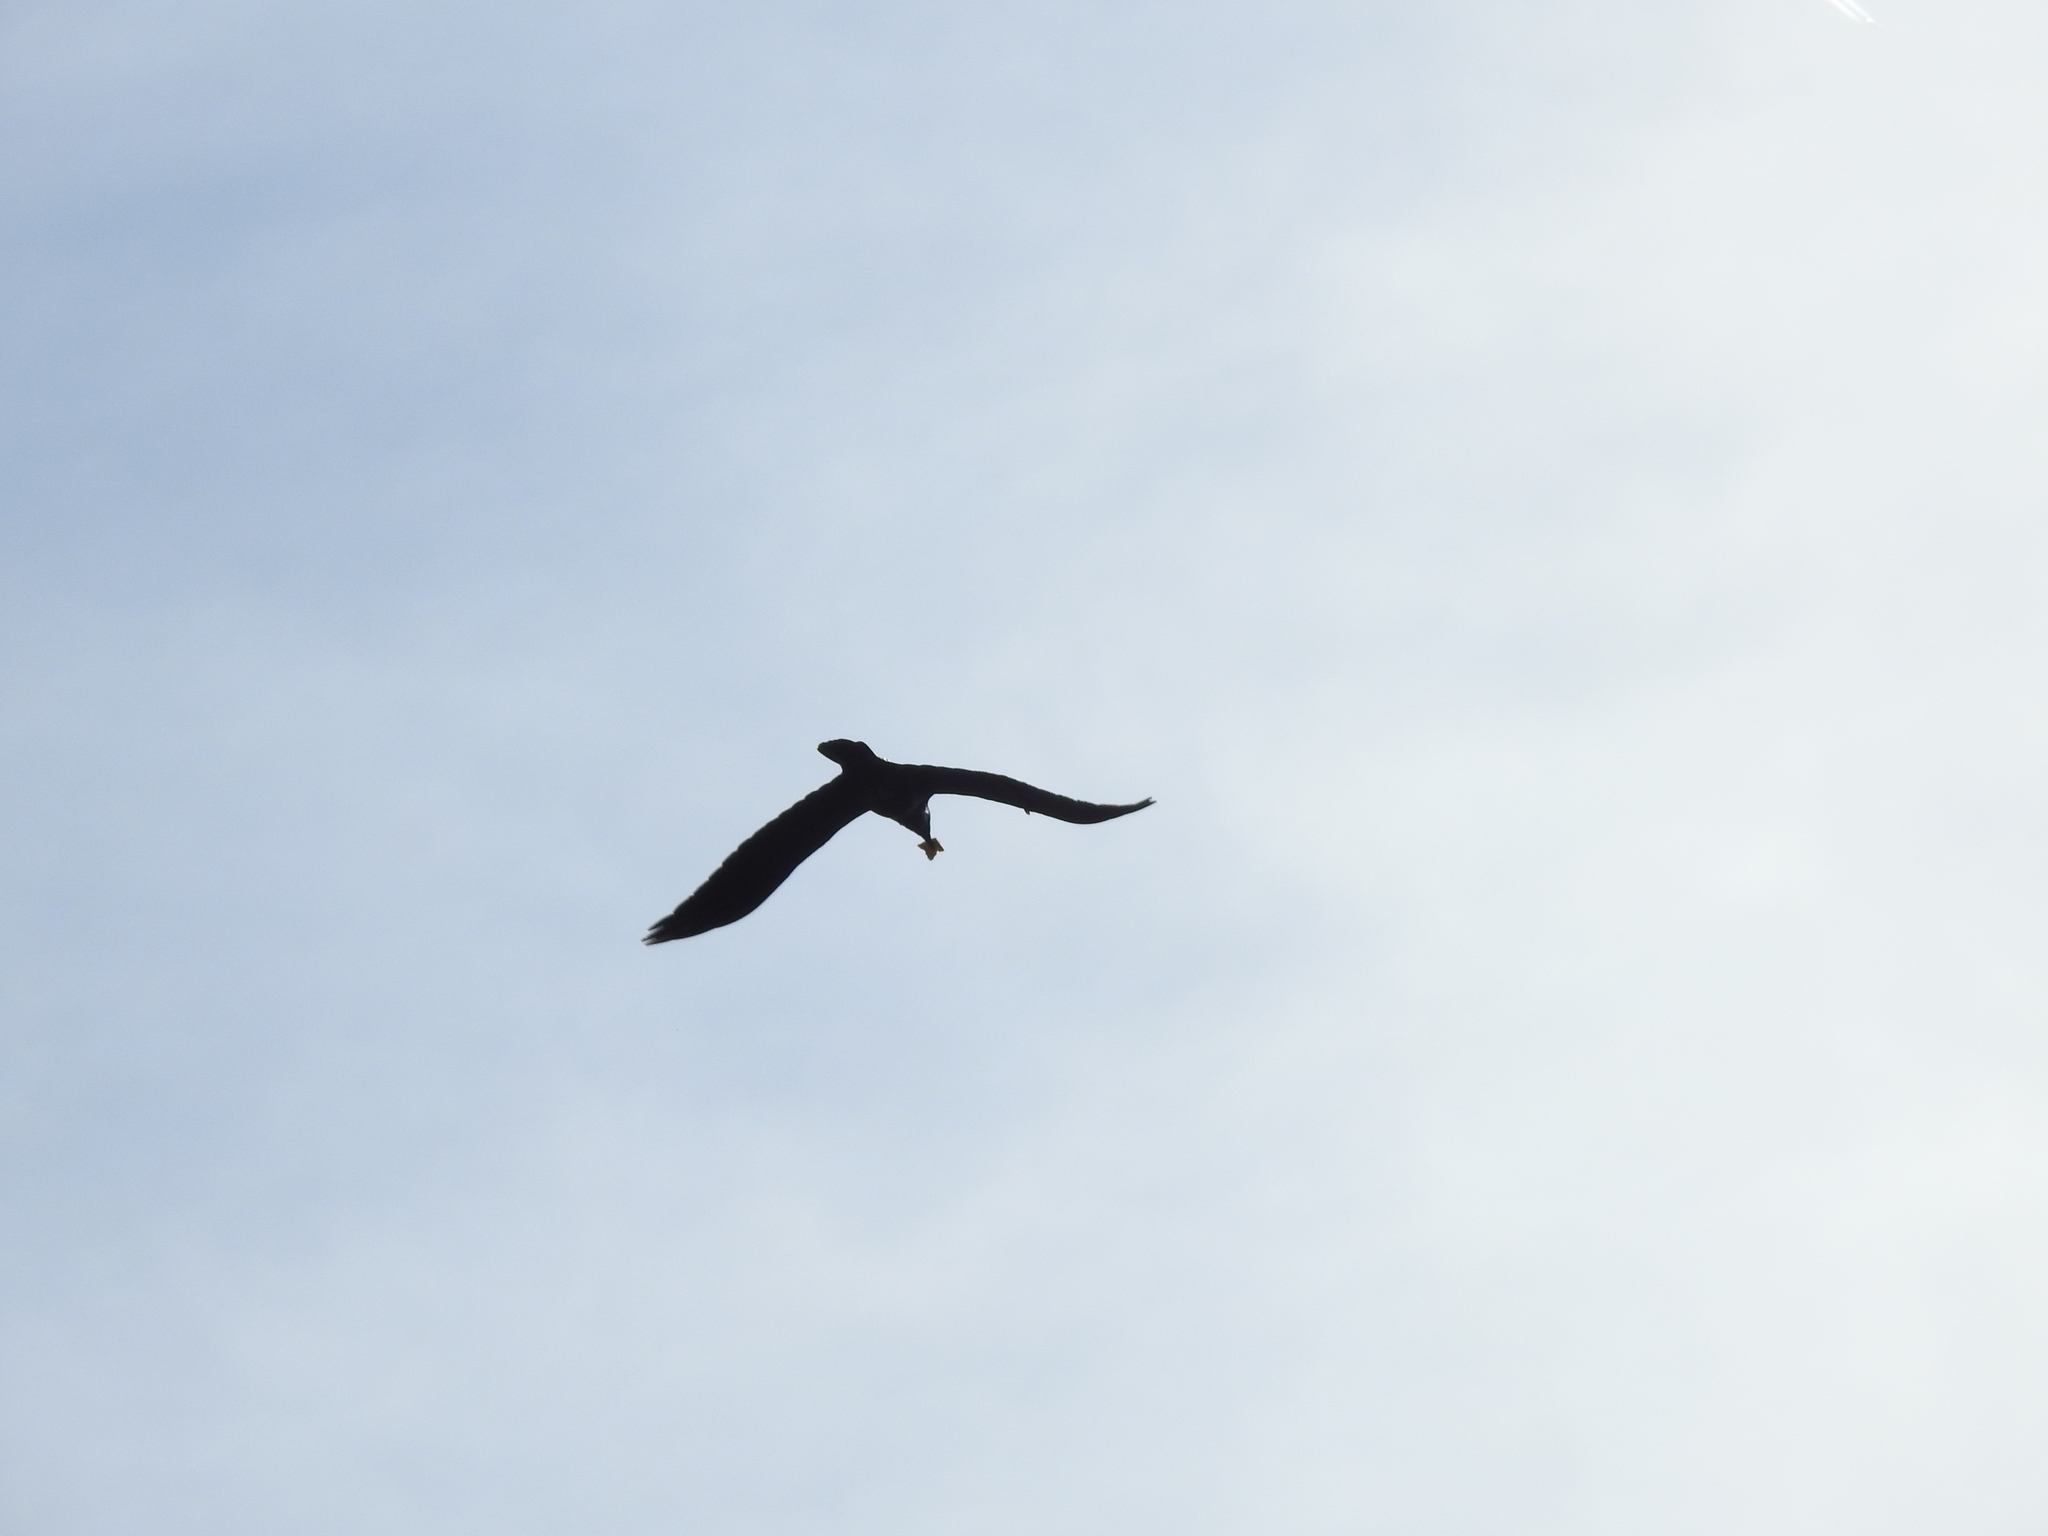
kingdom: Animalia
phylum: Chordata
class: Aves
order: Passeriformes
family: Corvidae
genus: Corvus
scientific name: Corvus corax
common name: Common raven
